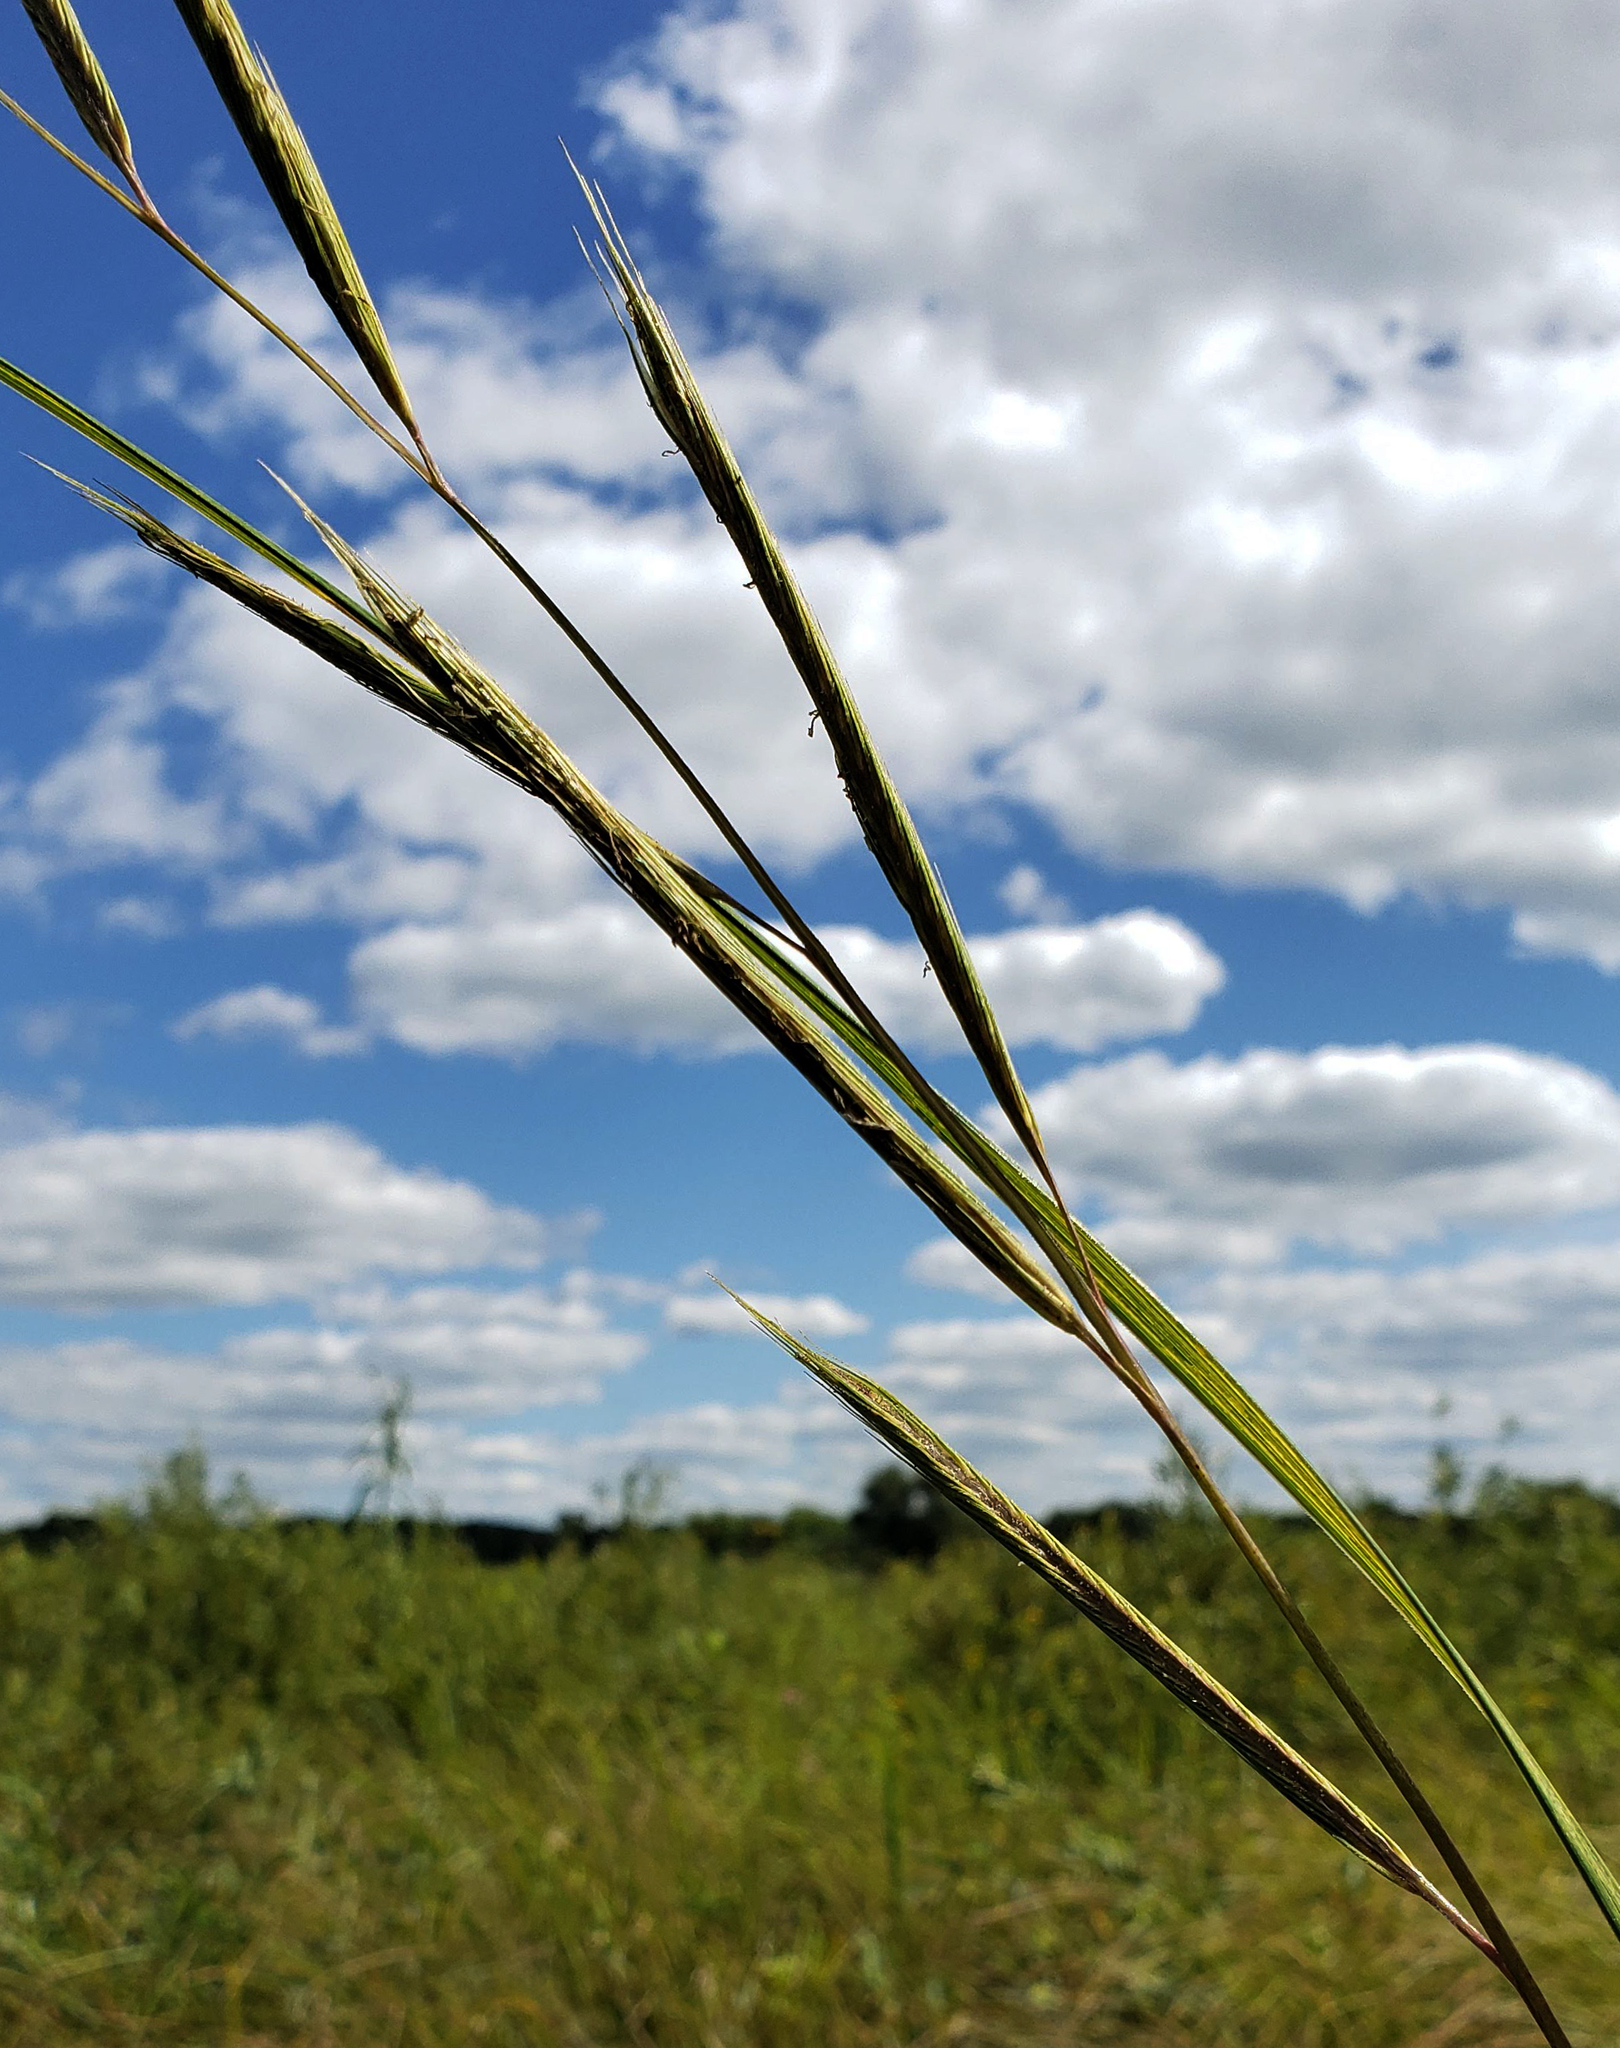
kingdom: Plantae
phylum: Tracheophyta
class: Liliopsida
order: Poales
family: Poaceae
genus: Sporobolus
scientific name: Sporobolus michauxianus
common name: Freshwater cordgrass
